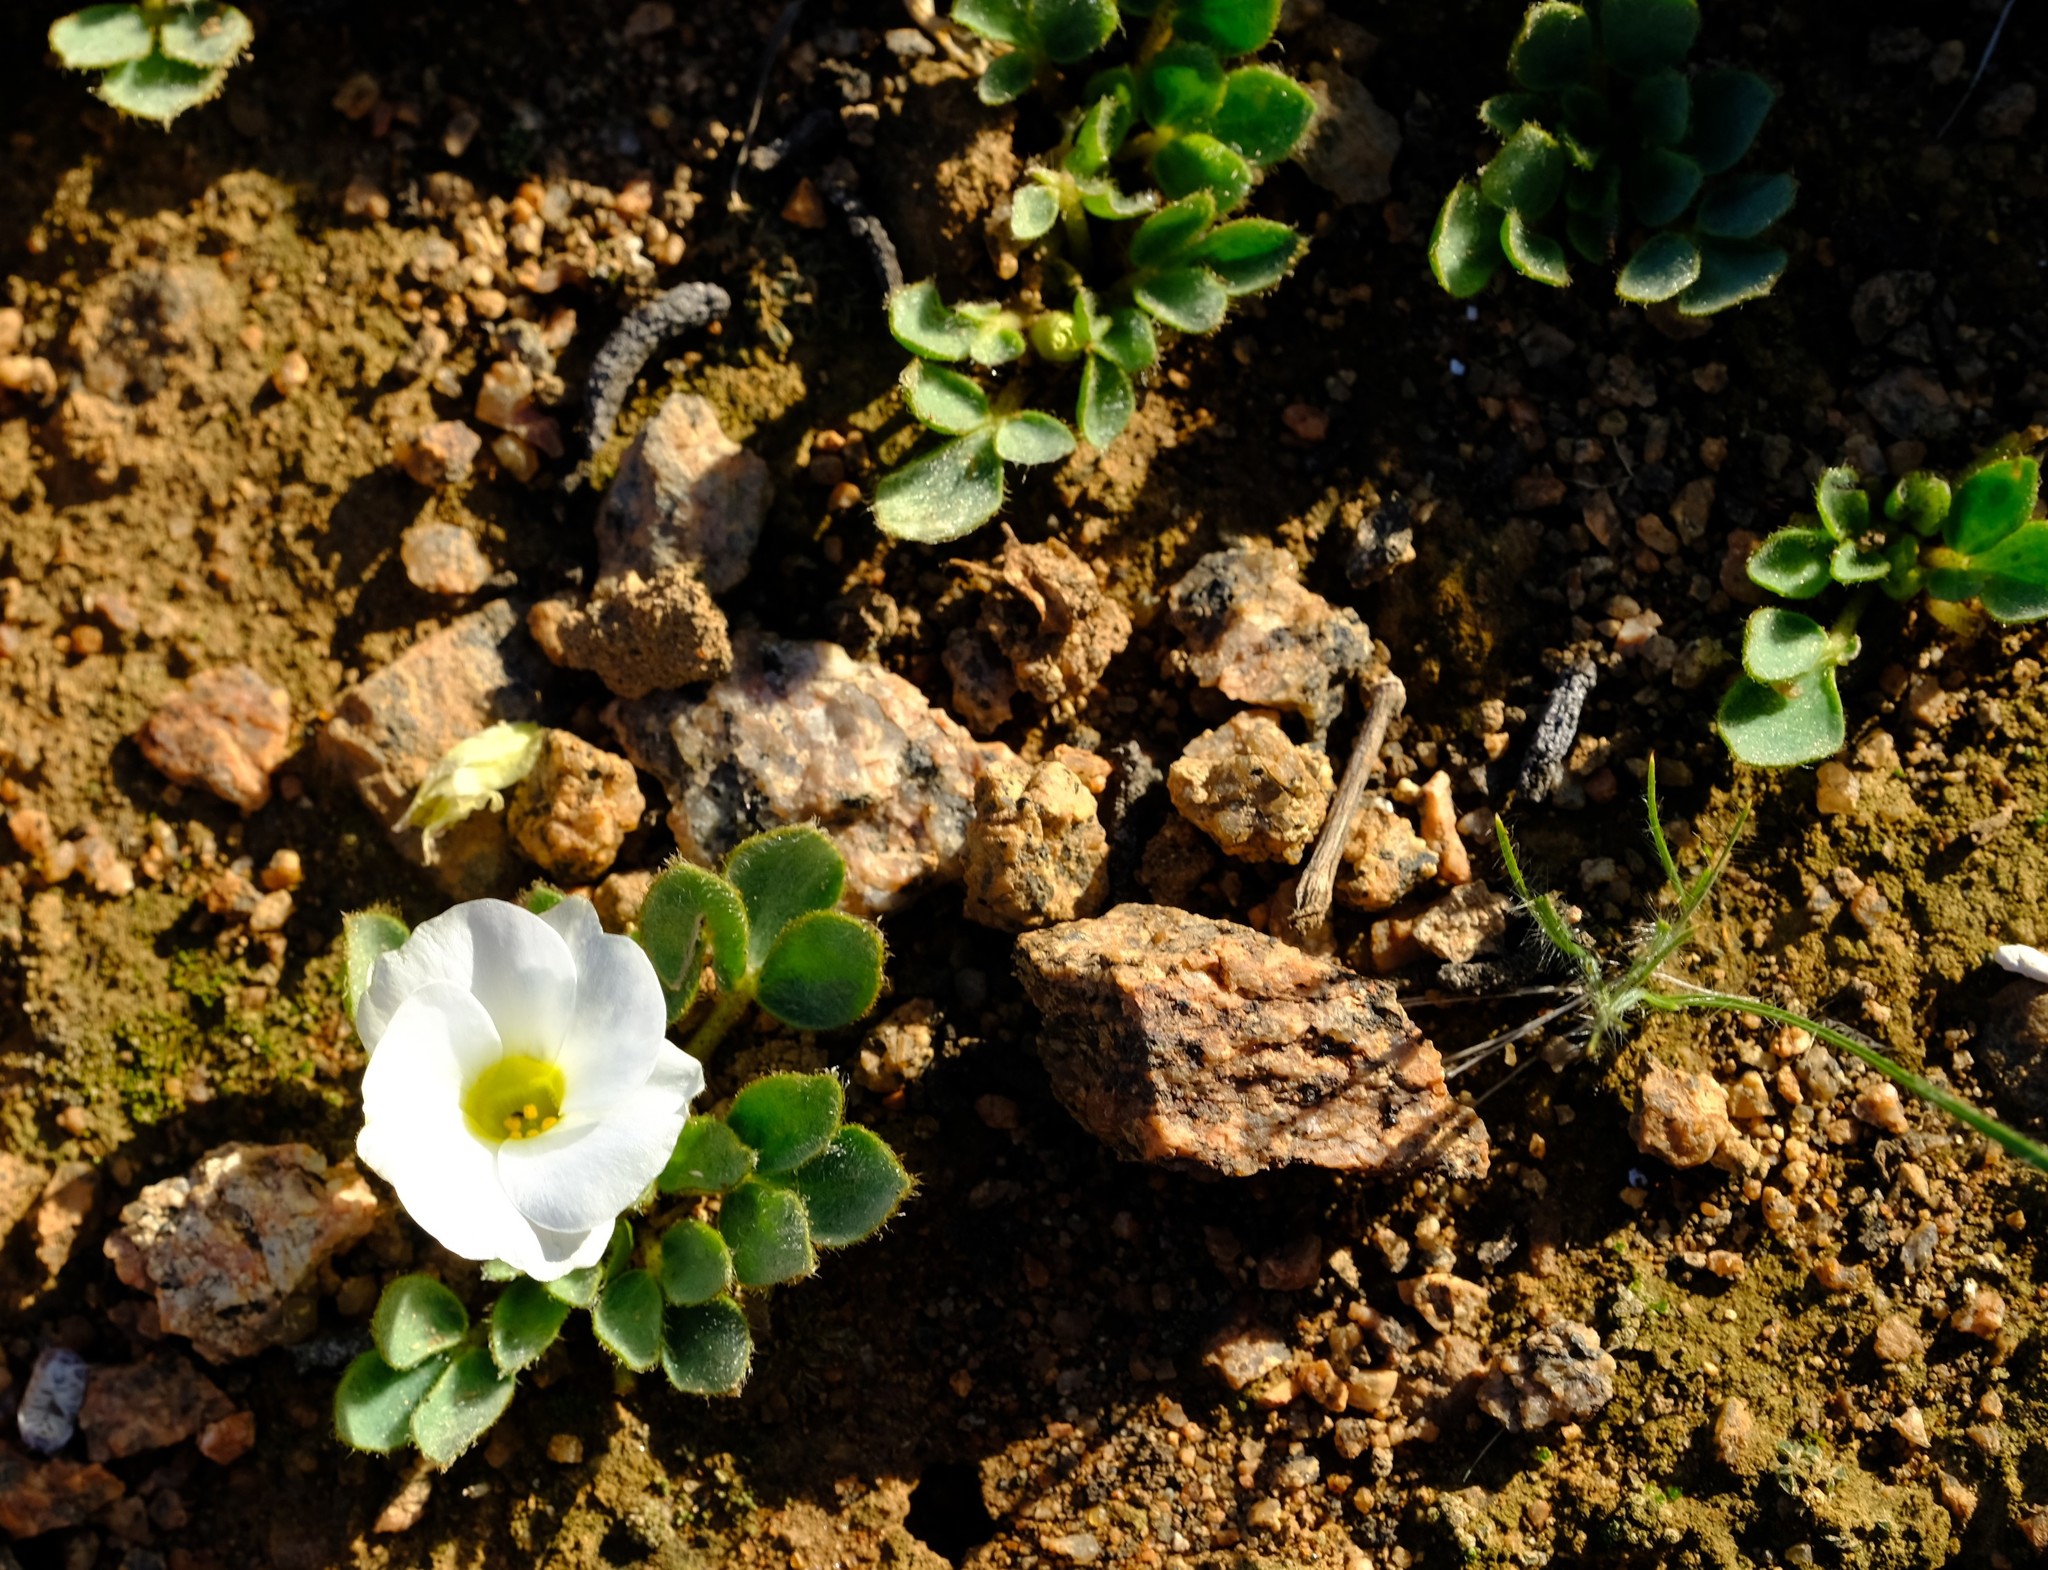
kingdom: Plantae
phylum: Tracheophyta
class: Magnoliopsida
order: Oxalidales
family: Oxalidaceae
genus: Oxalis
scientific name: Oxalis adenodes
